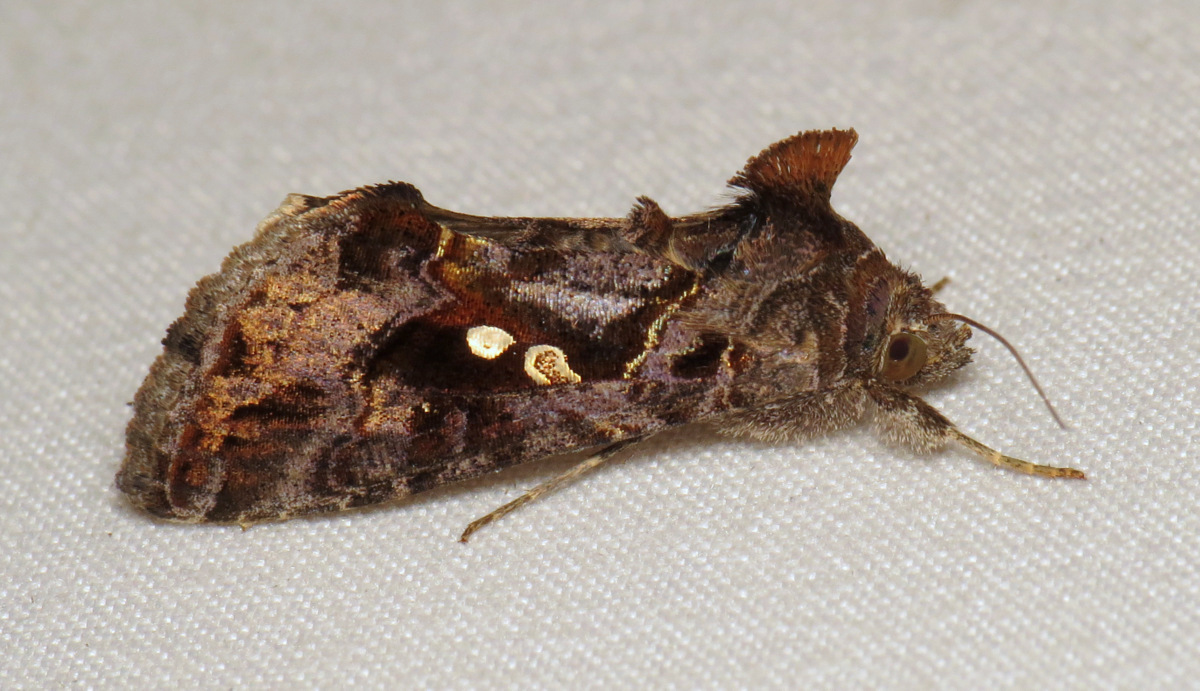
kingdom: Animalia
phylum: Arthropoda
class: Insecta
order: Lepidoptera
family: Noctuidae
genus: Chrysodeixis
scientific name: Chrysodeixis includens
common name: Cutworm moth
